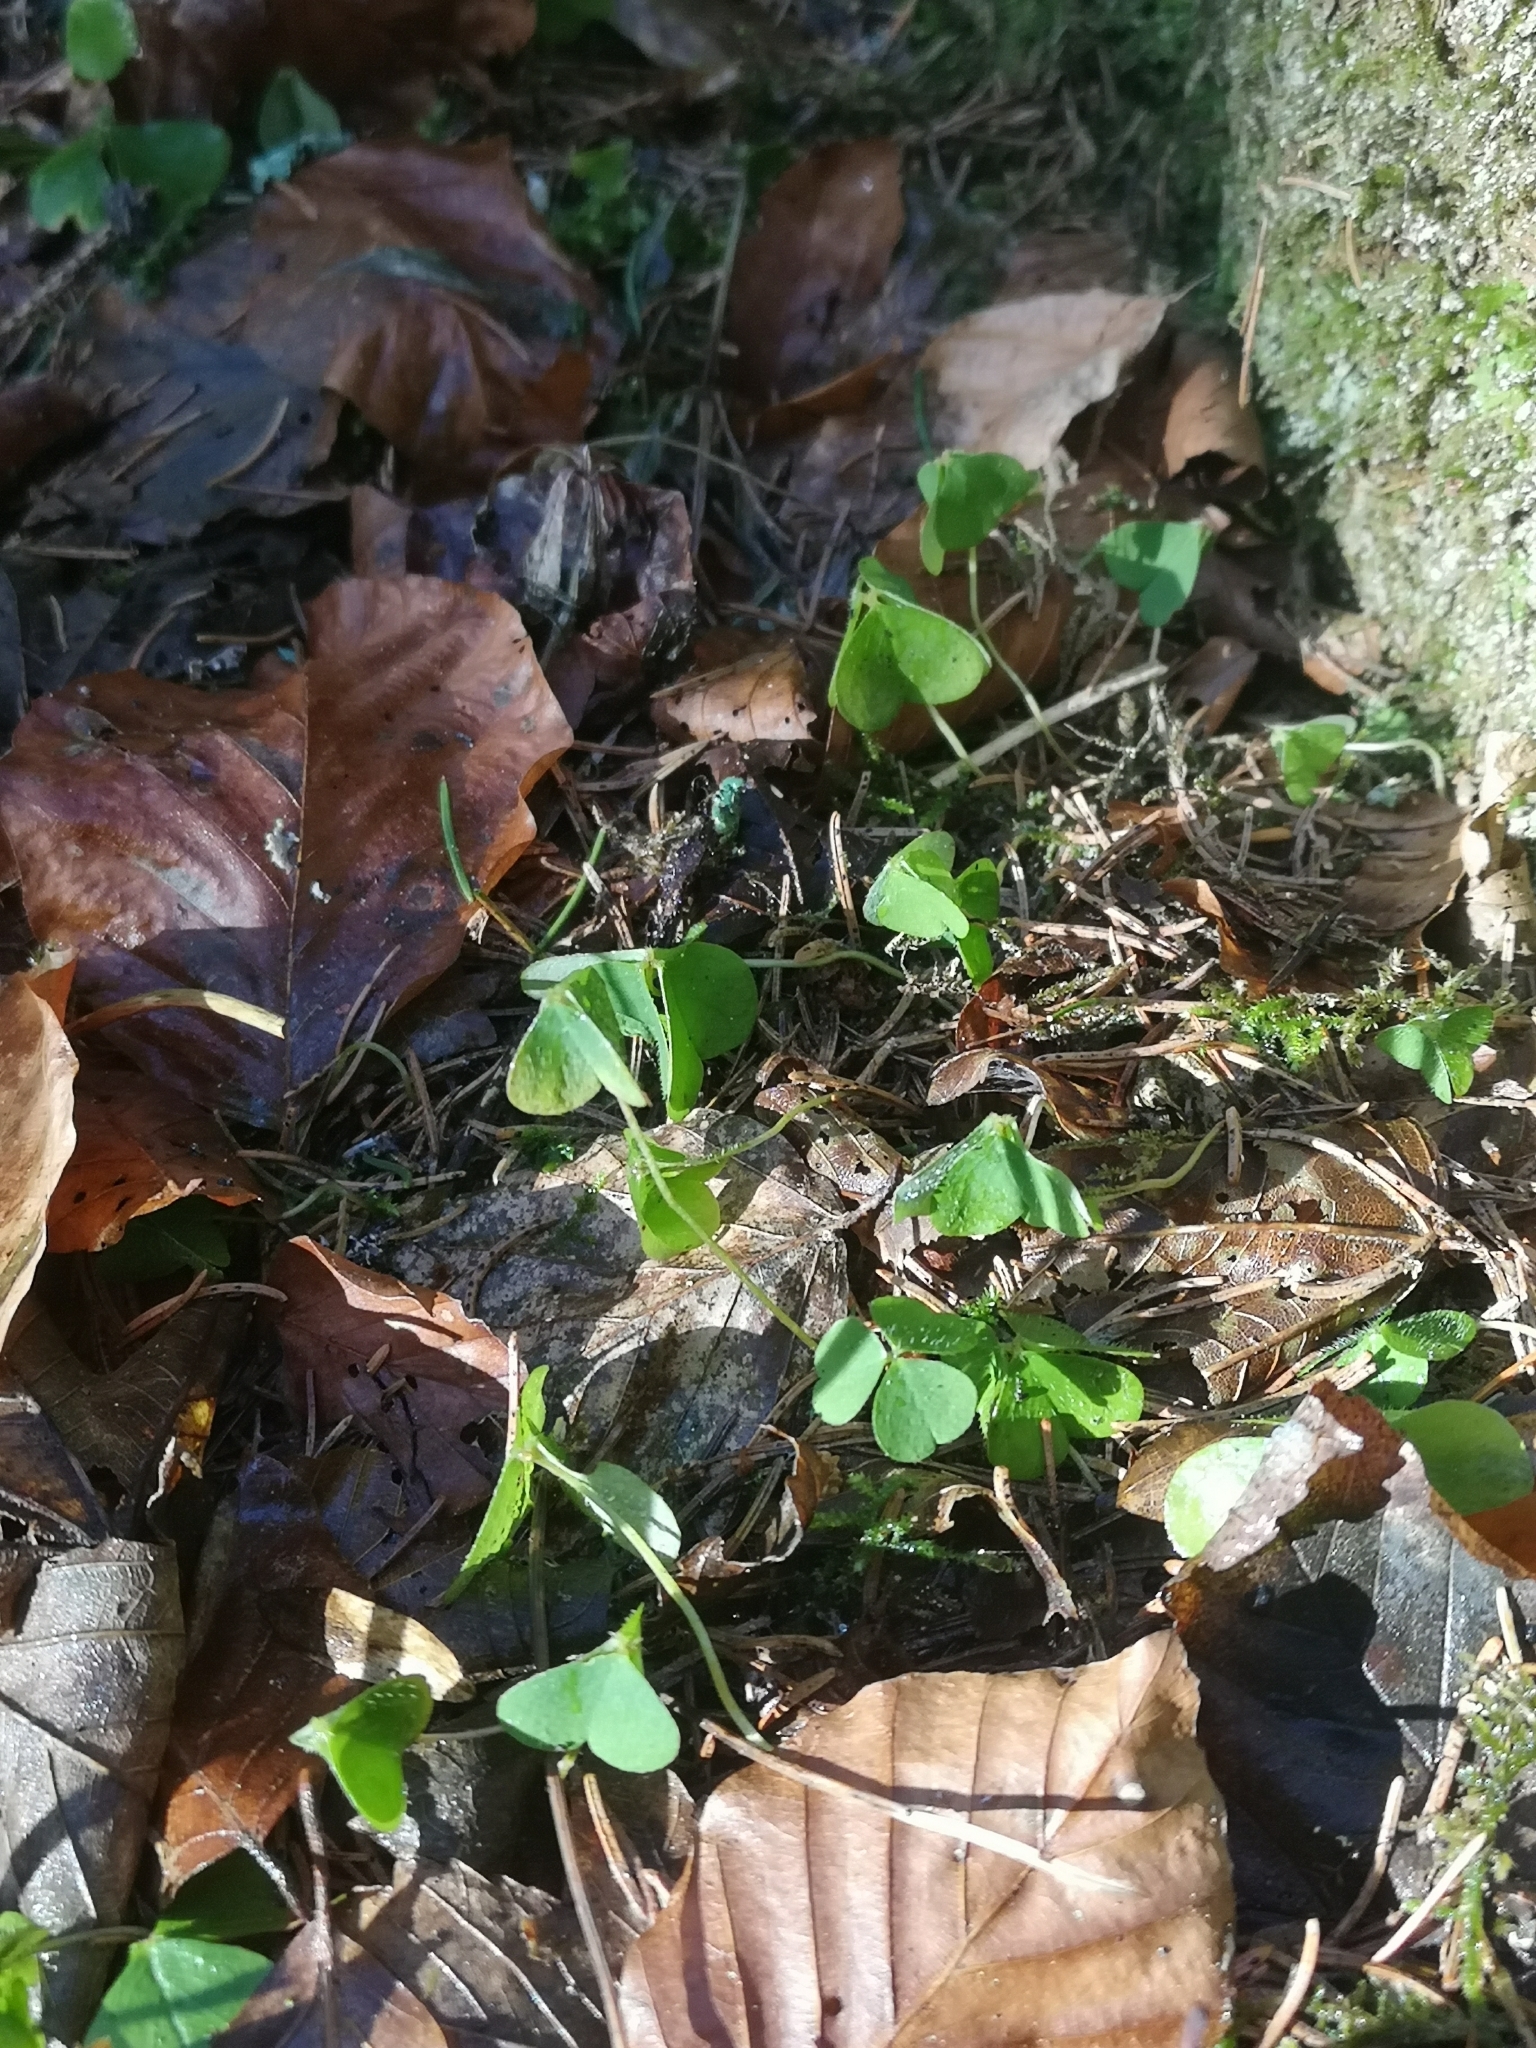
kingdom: Plantae
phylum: Tracheophyta
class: Magnoliopsida
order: Oxalidales
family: Oxalidaceae
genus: Oxalis
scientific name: Oxalis acetosella
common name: Wood-sorrel
